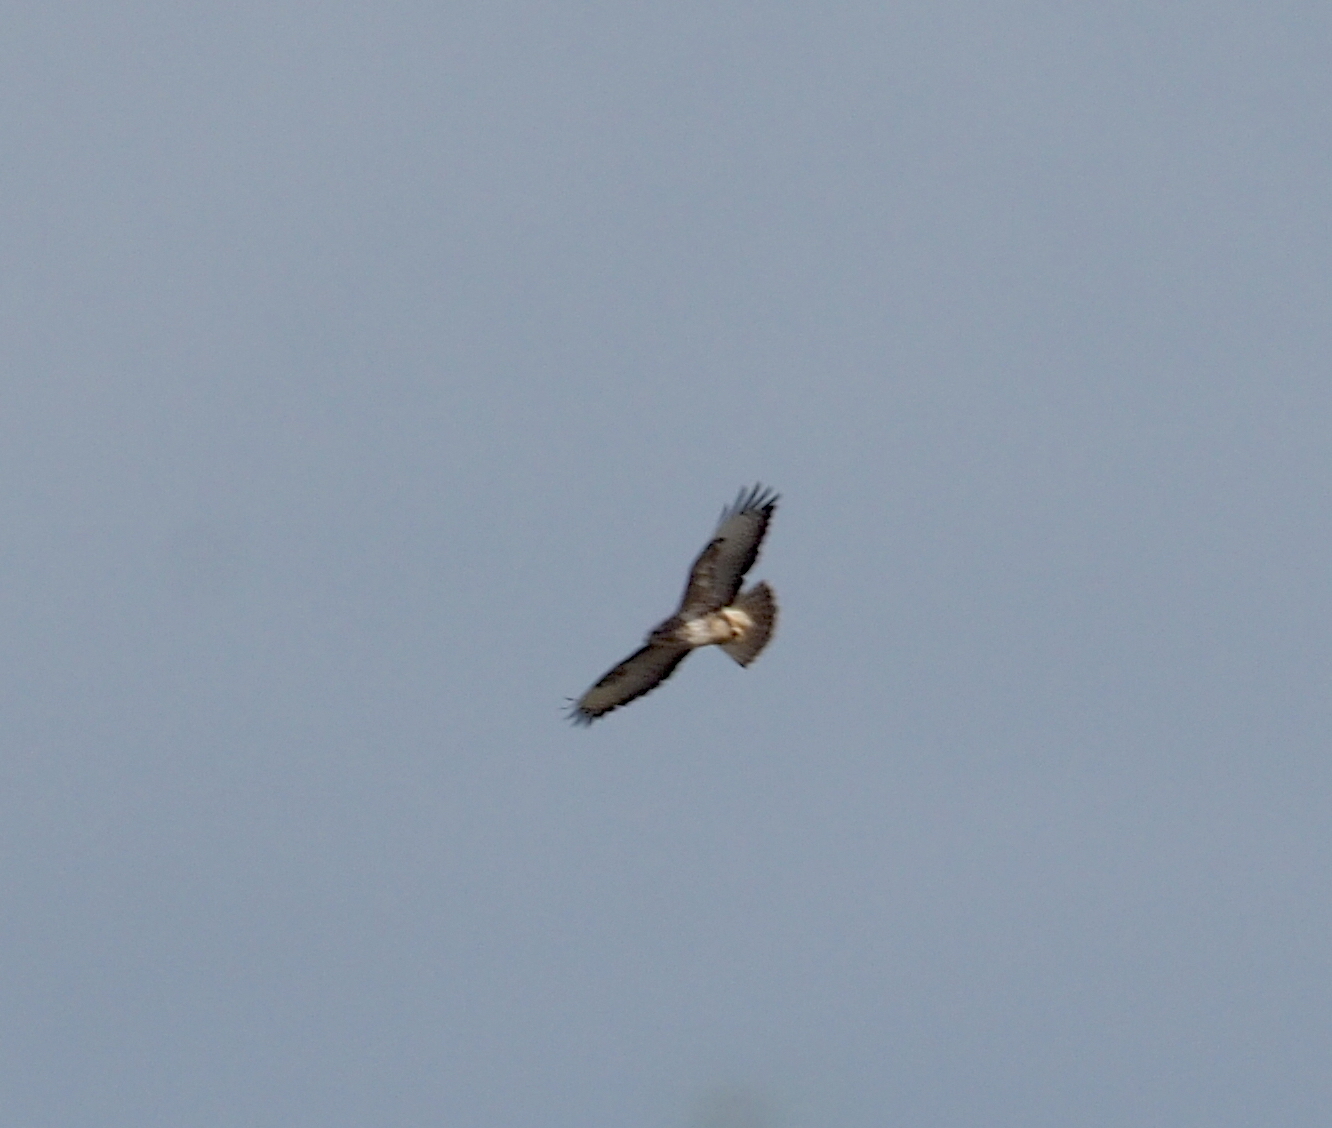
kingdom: Animalia
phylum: Chordata
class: Aves
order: Accipitriformes
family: Accipitridae
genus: Buteo
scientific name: Buteo buteo
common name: Common buzzard
